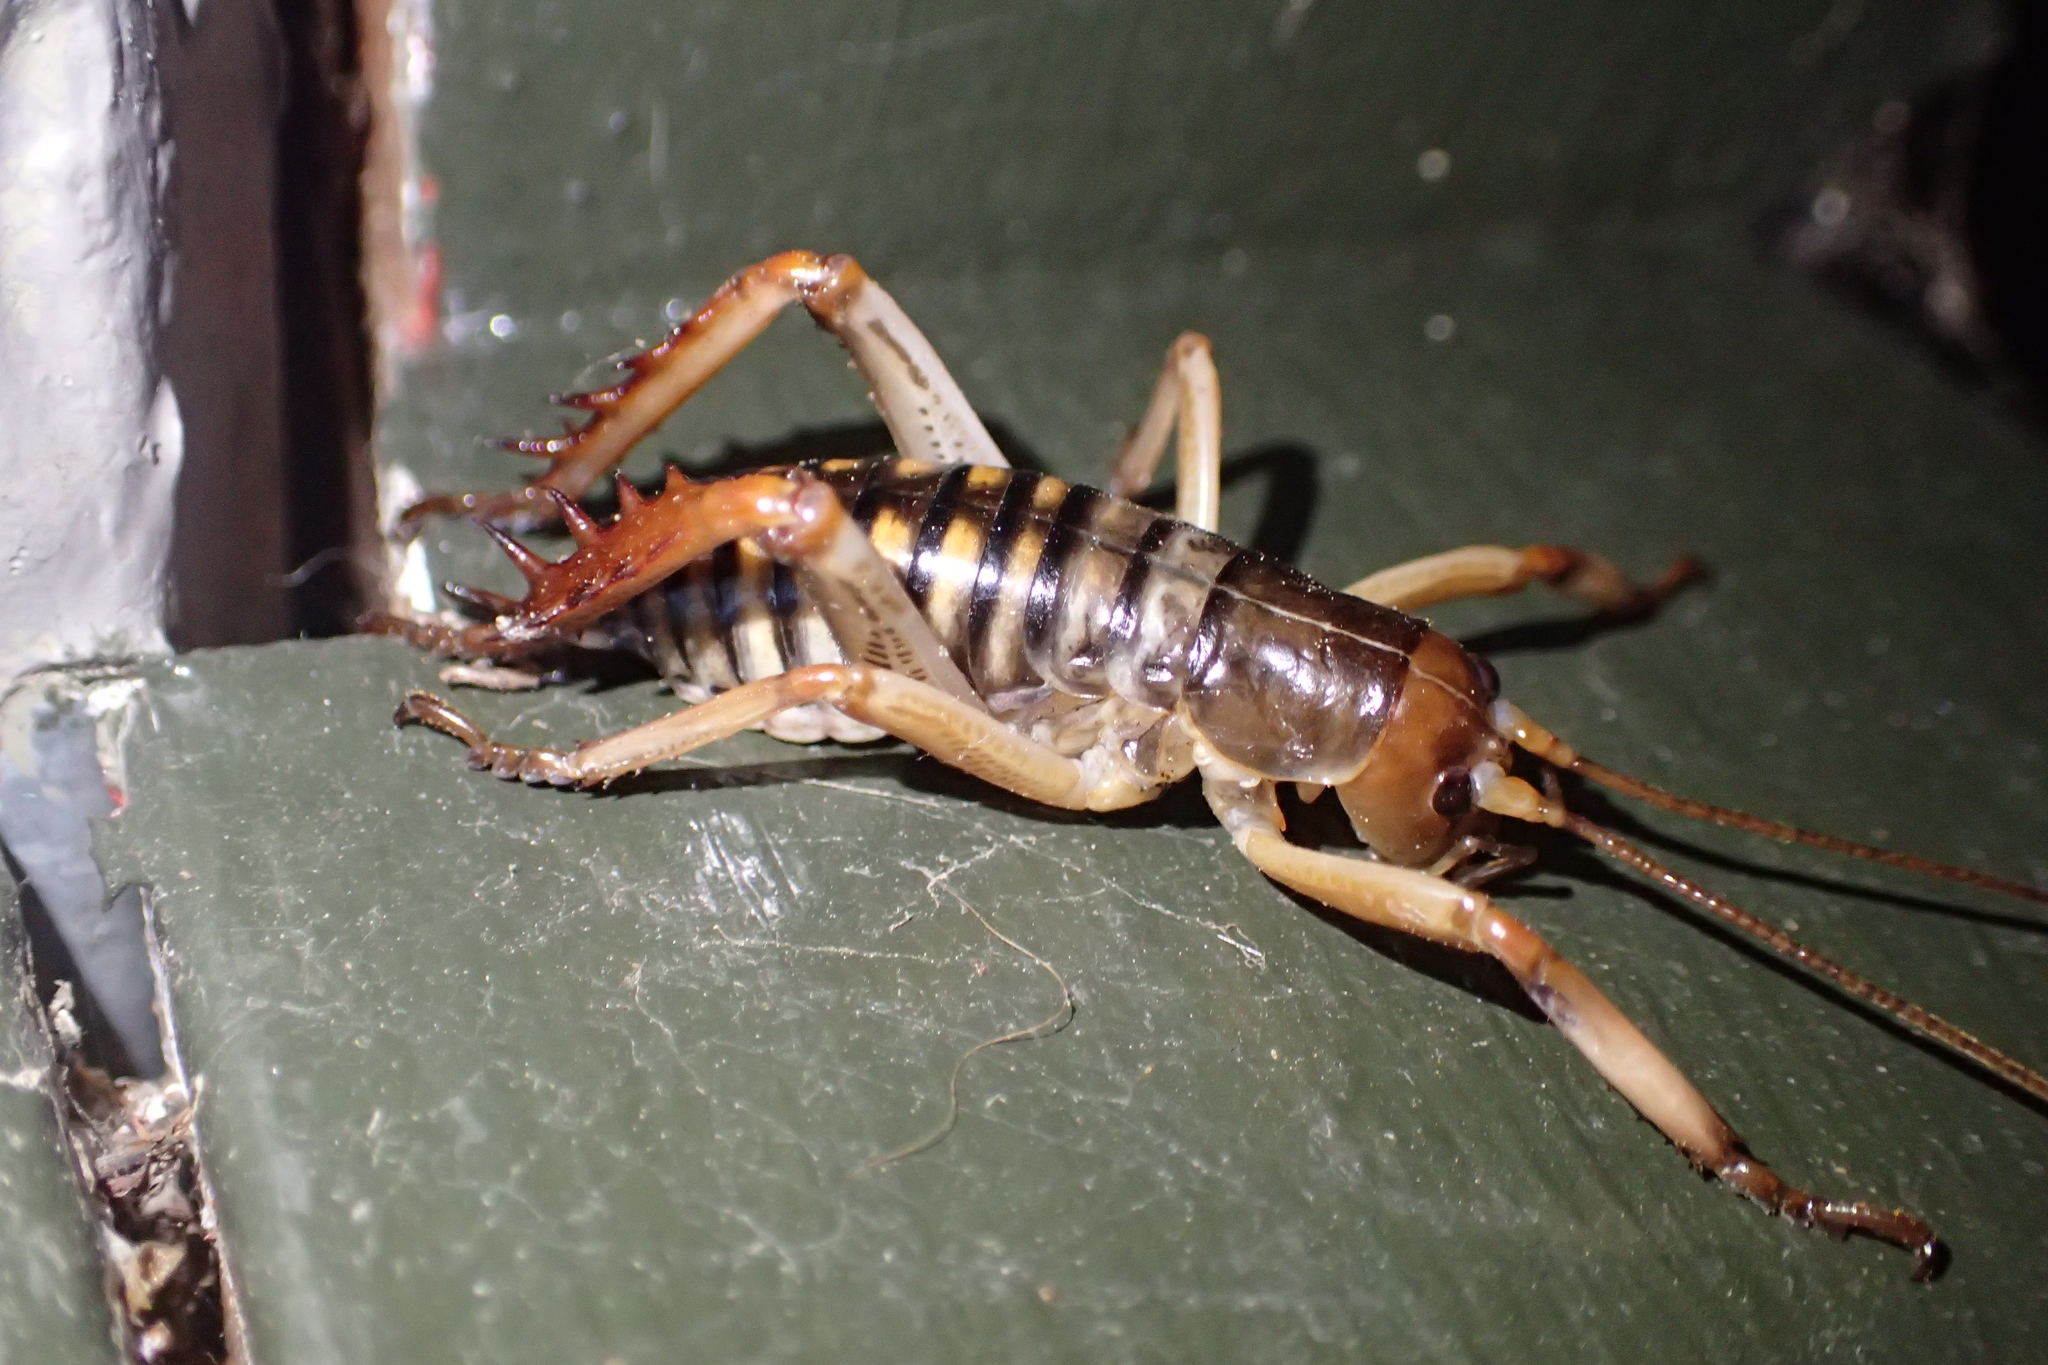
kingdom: Animalia
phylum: Arthropoda
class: Insecta
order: Orthoptera
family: Anostostomatidae
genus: Hemideina
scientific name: Hemideina crassidens
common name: Wellington tree weta
